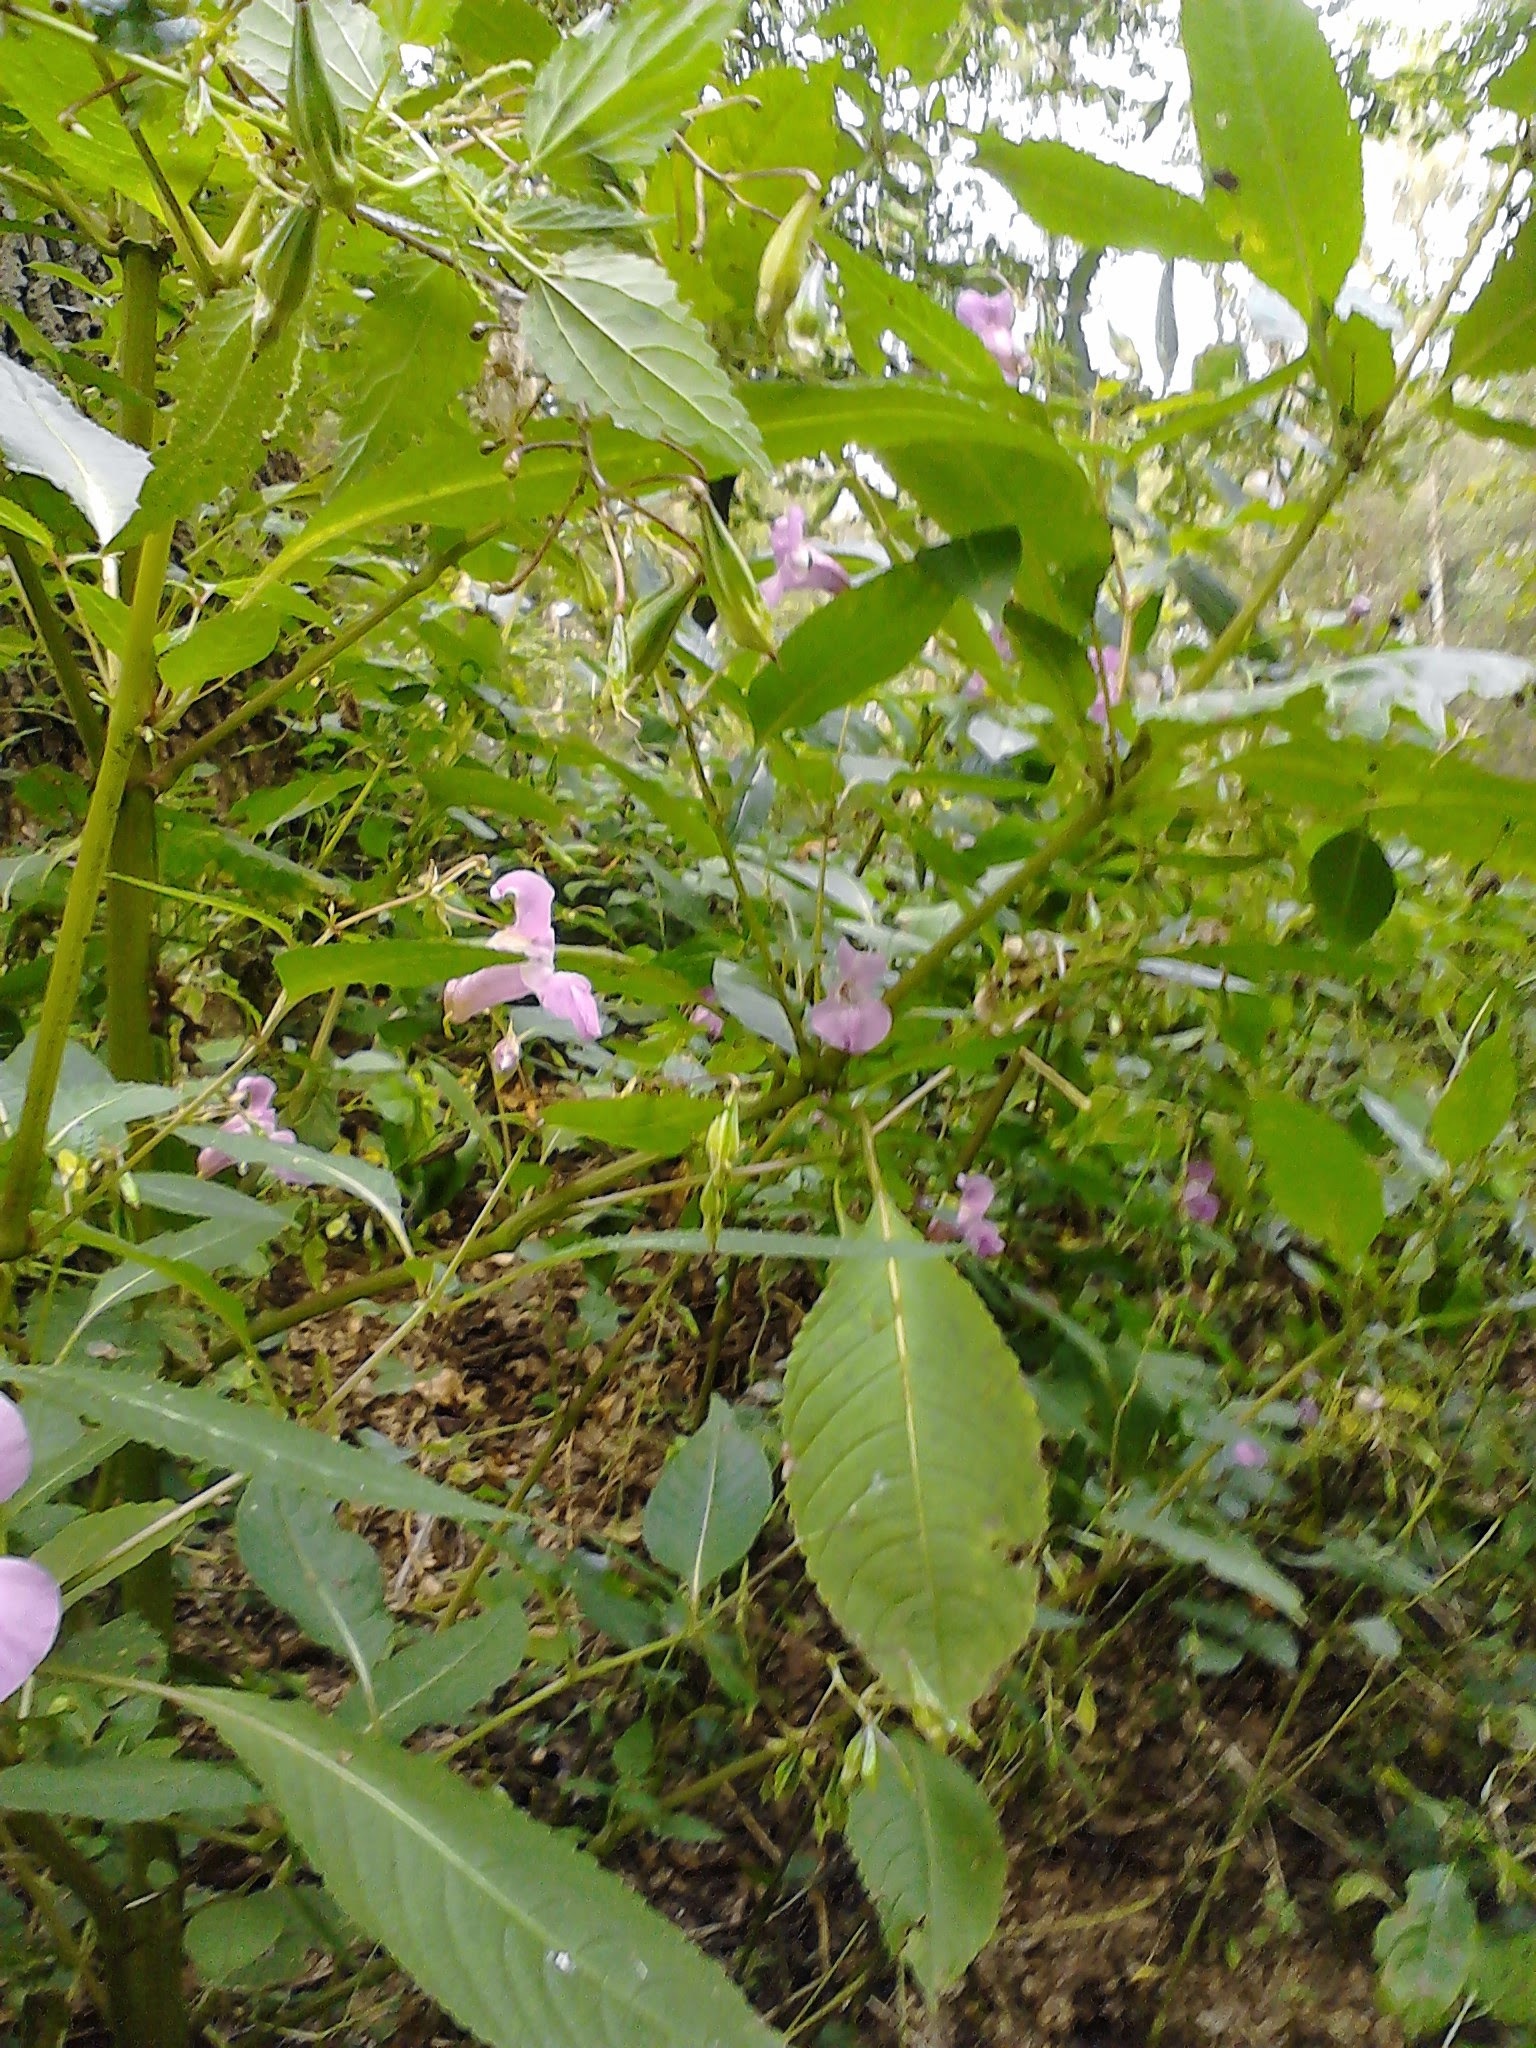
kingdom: Plantae
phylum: Tracheophyta
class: Magnoliopsida
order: Ericales
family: Balsaminaceae
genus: Impatiens
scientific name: Impatiens glandulifera
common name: Himalayan balsam
